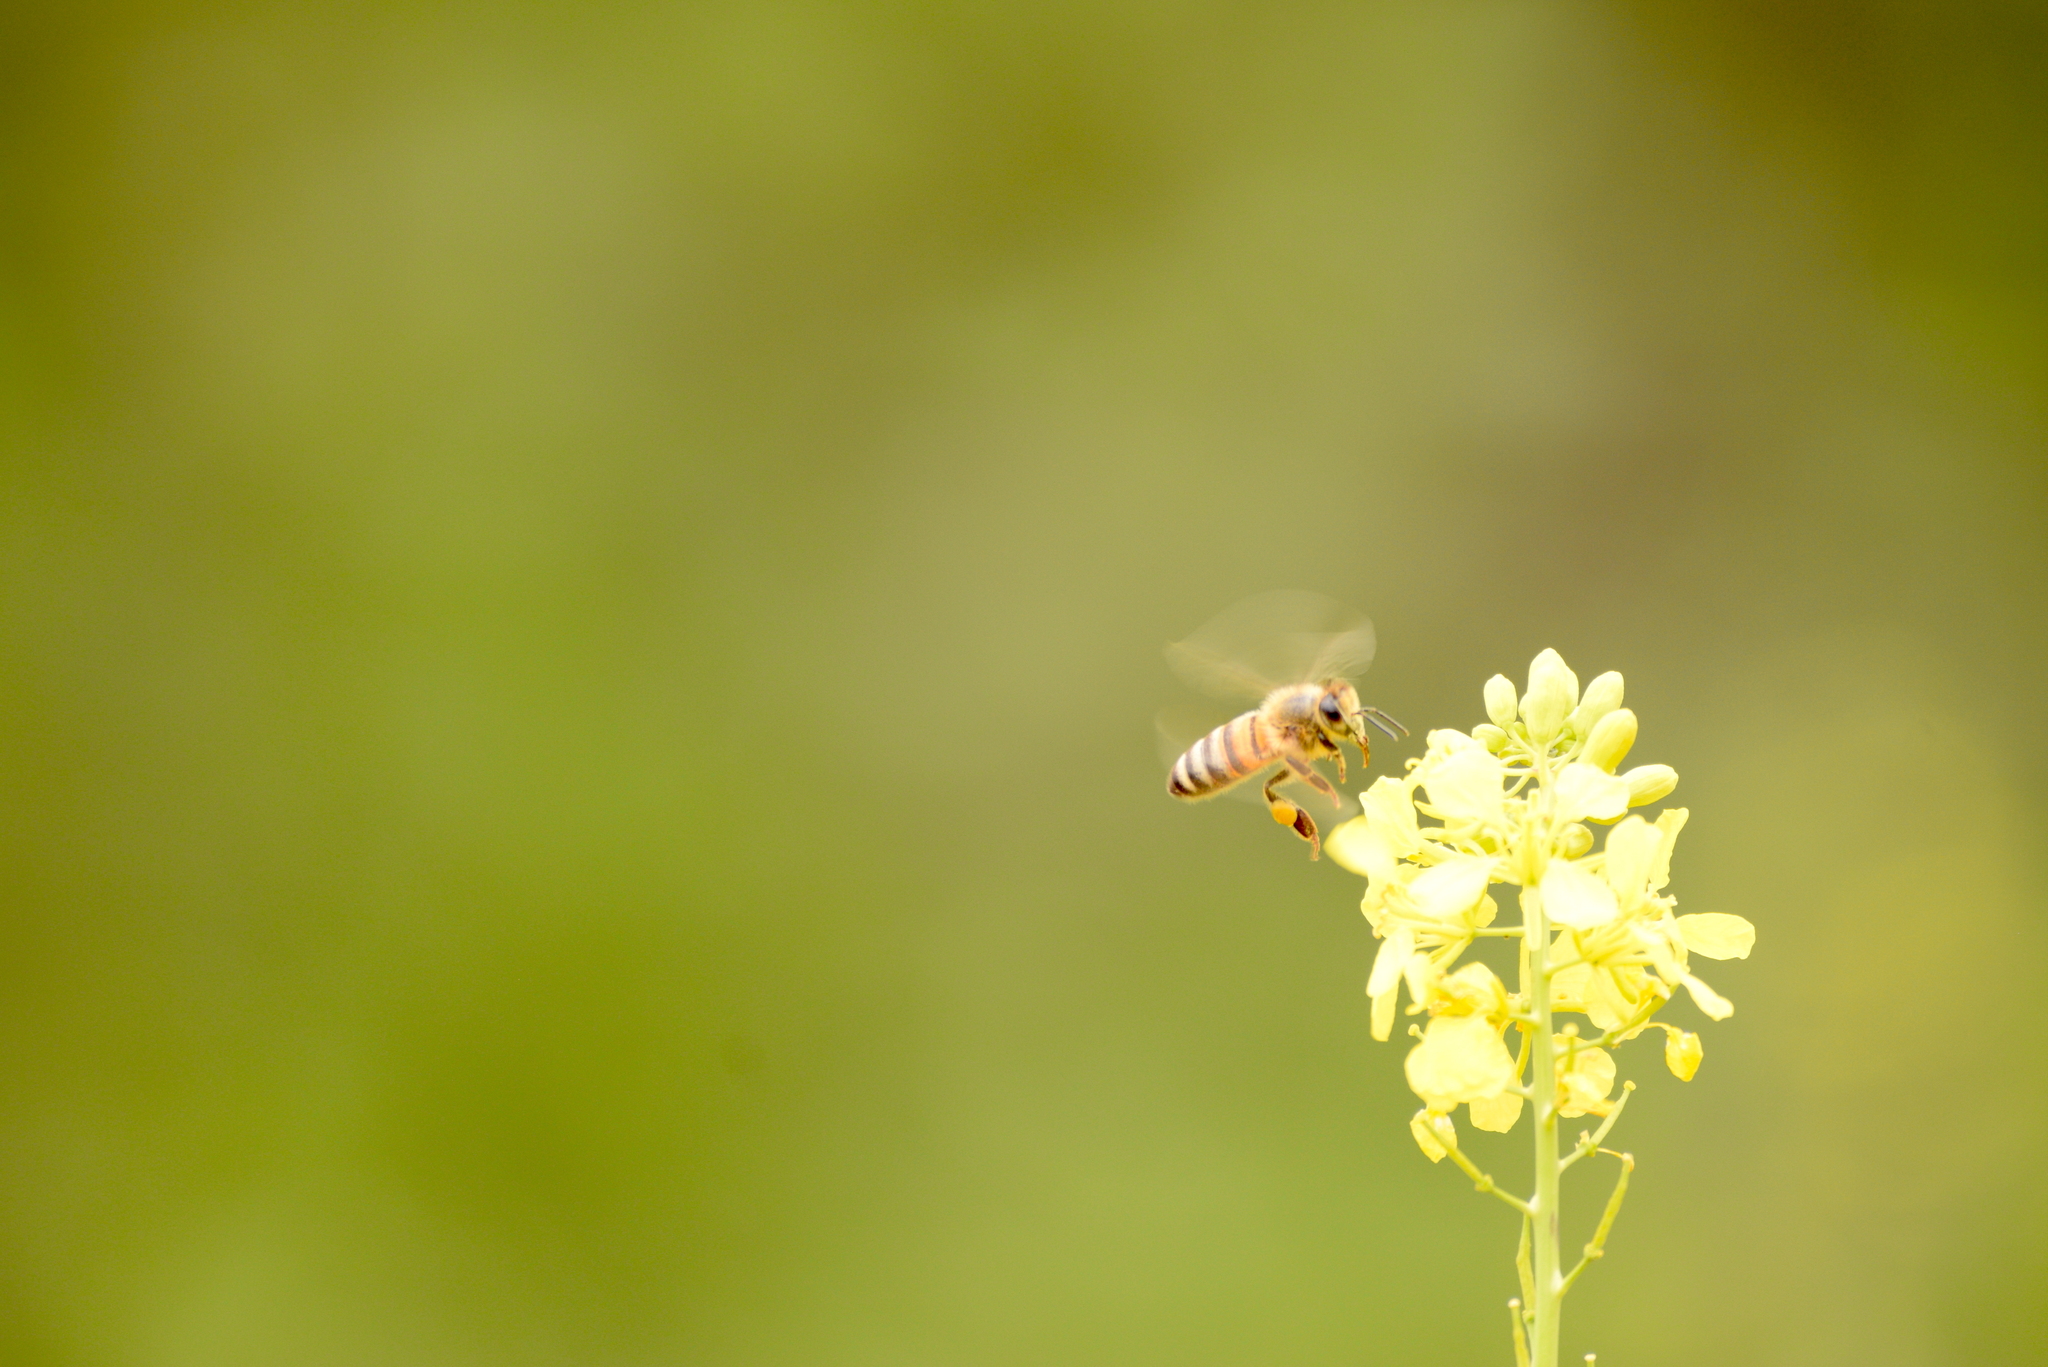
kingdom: Animalia
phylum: Arthropoda
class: Insecta
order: Hymenoptera
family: Apidae
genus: Apis
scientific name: Apis mellifera
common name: Honey bee
